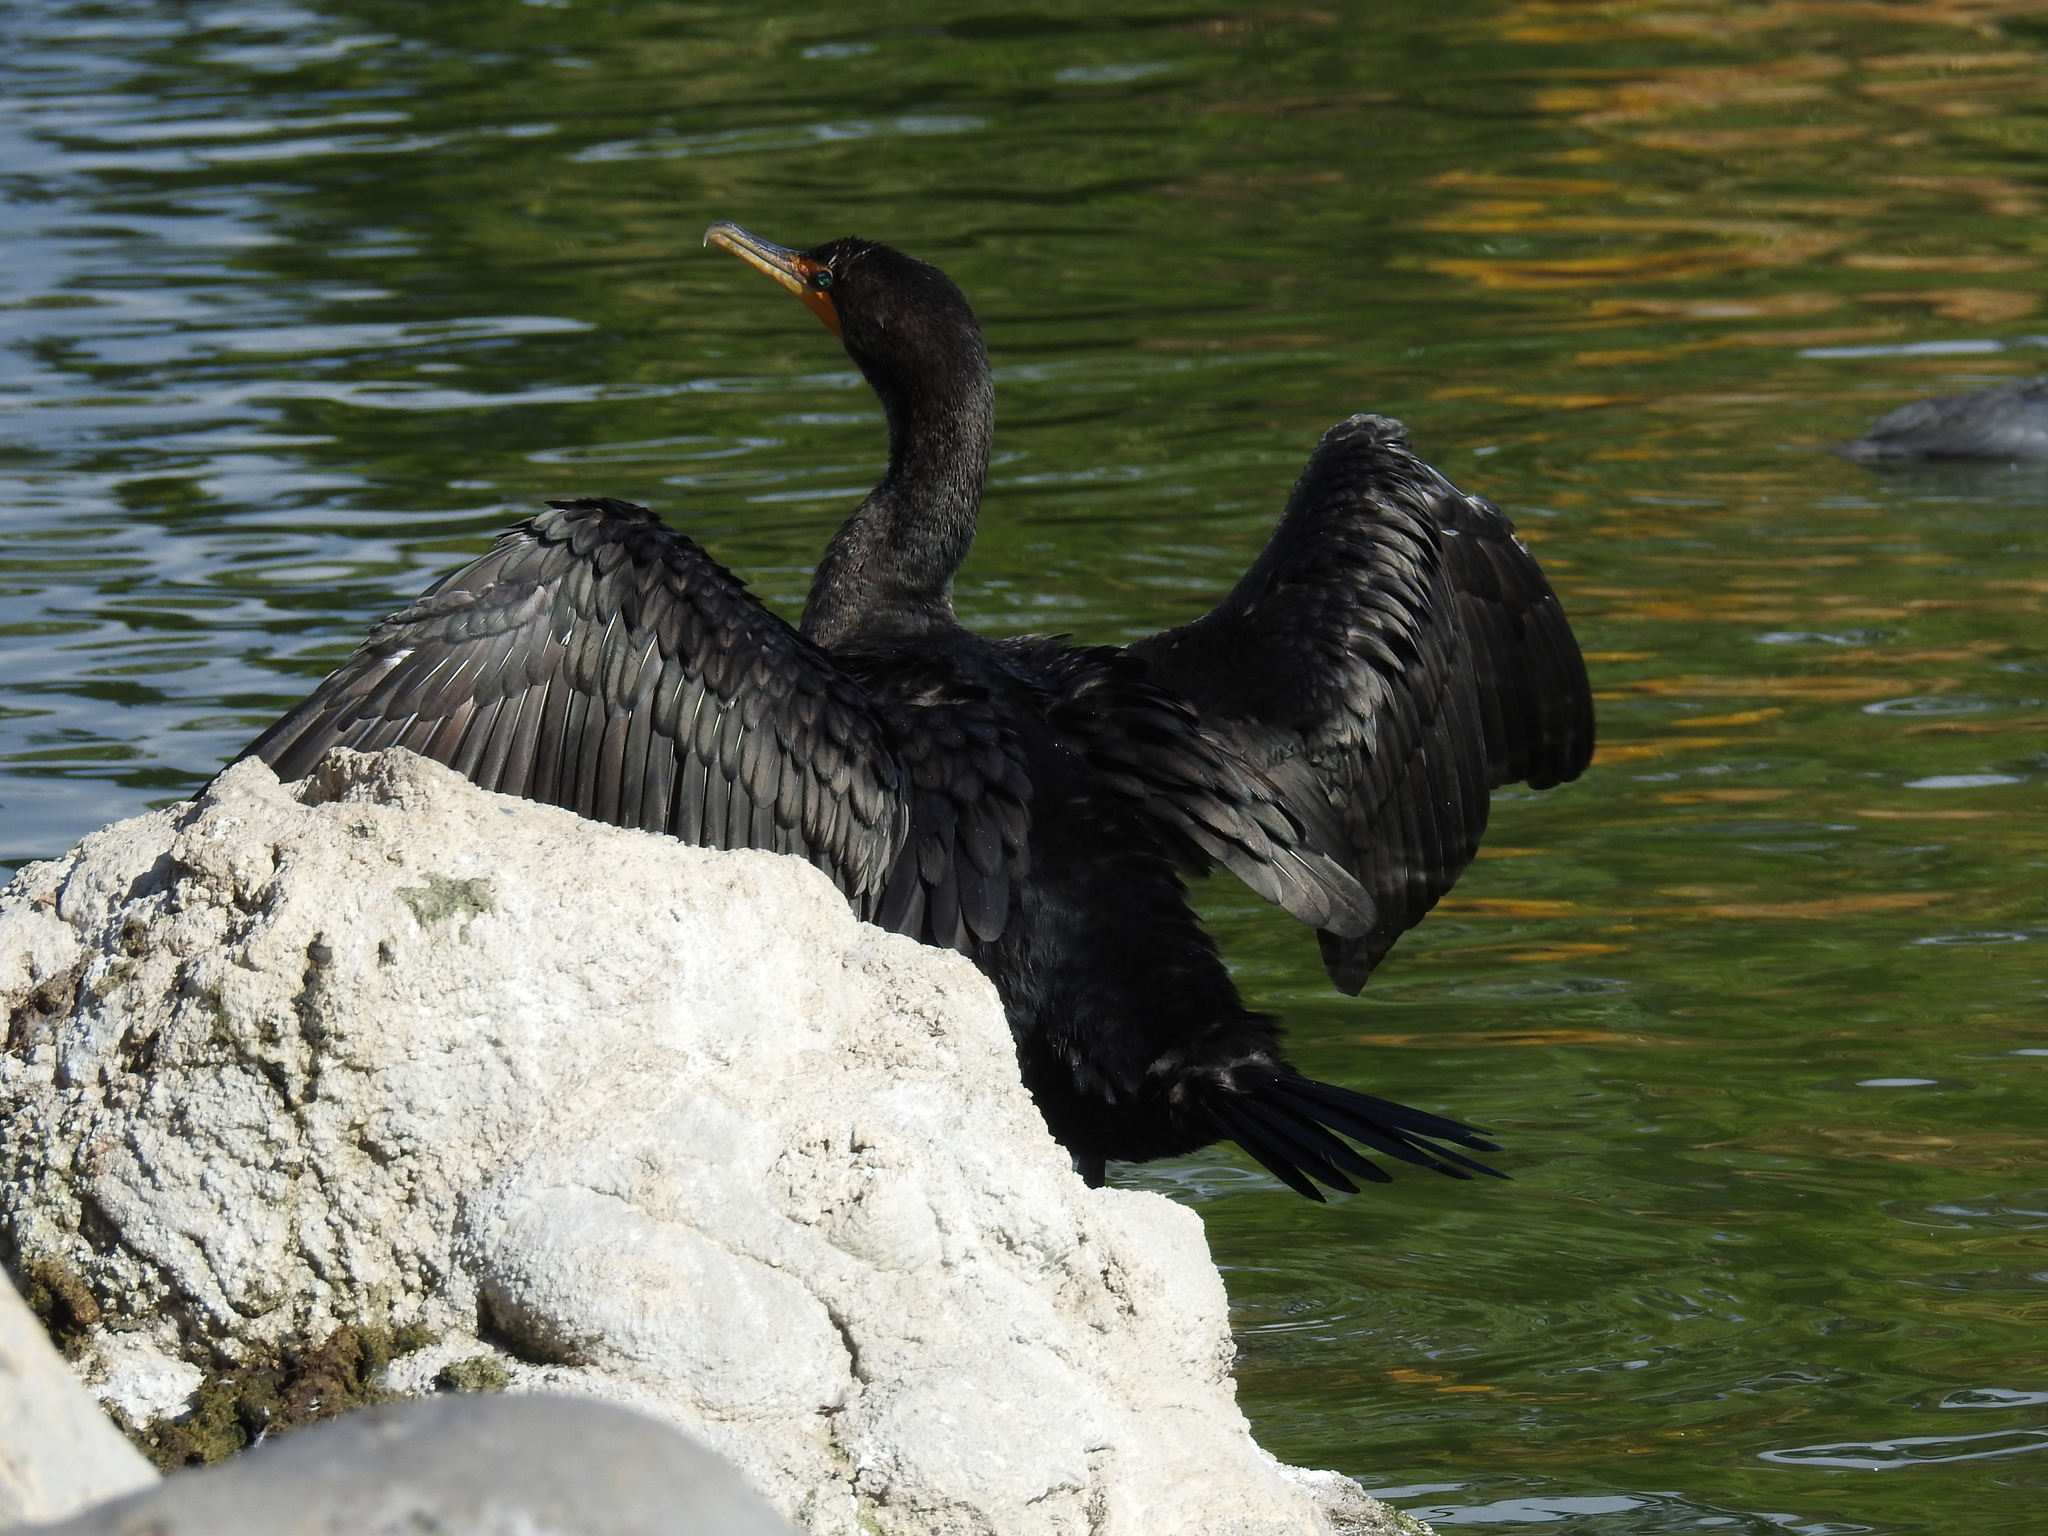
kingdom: Animalia
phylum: Chordata
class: Aves
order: Suliformes
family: Phalacrocoracidae
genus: Phalacrocorax
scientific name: Phalacrocorax auritus
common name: Double-crested cormorant
